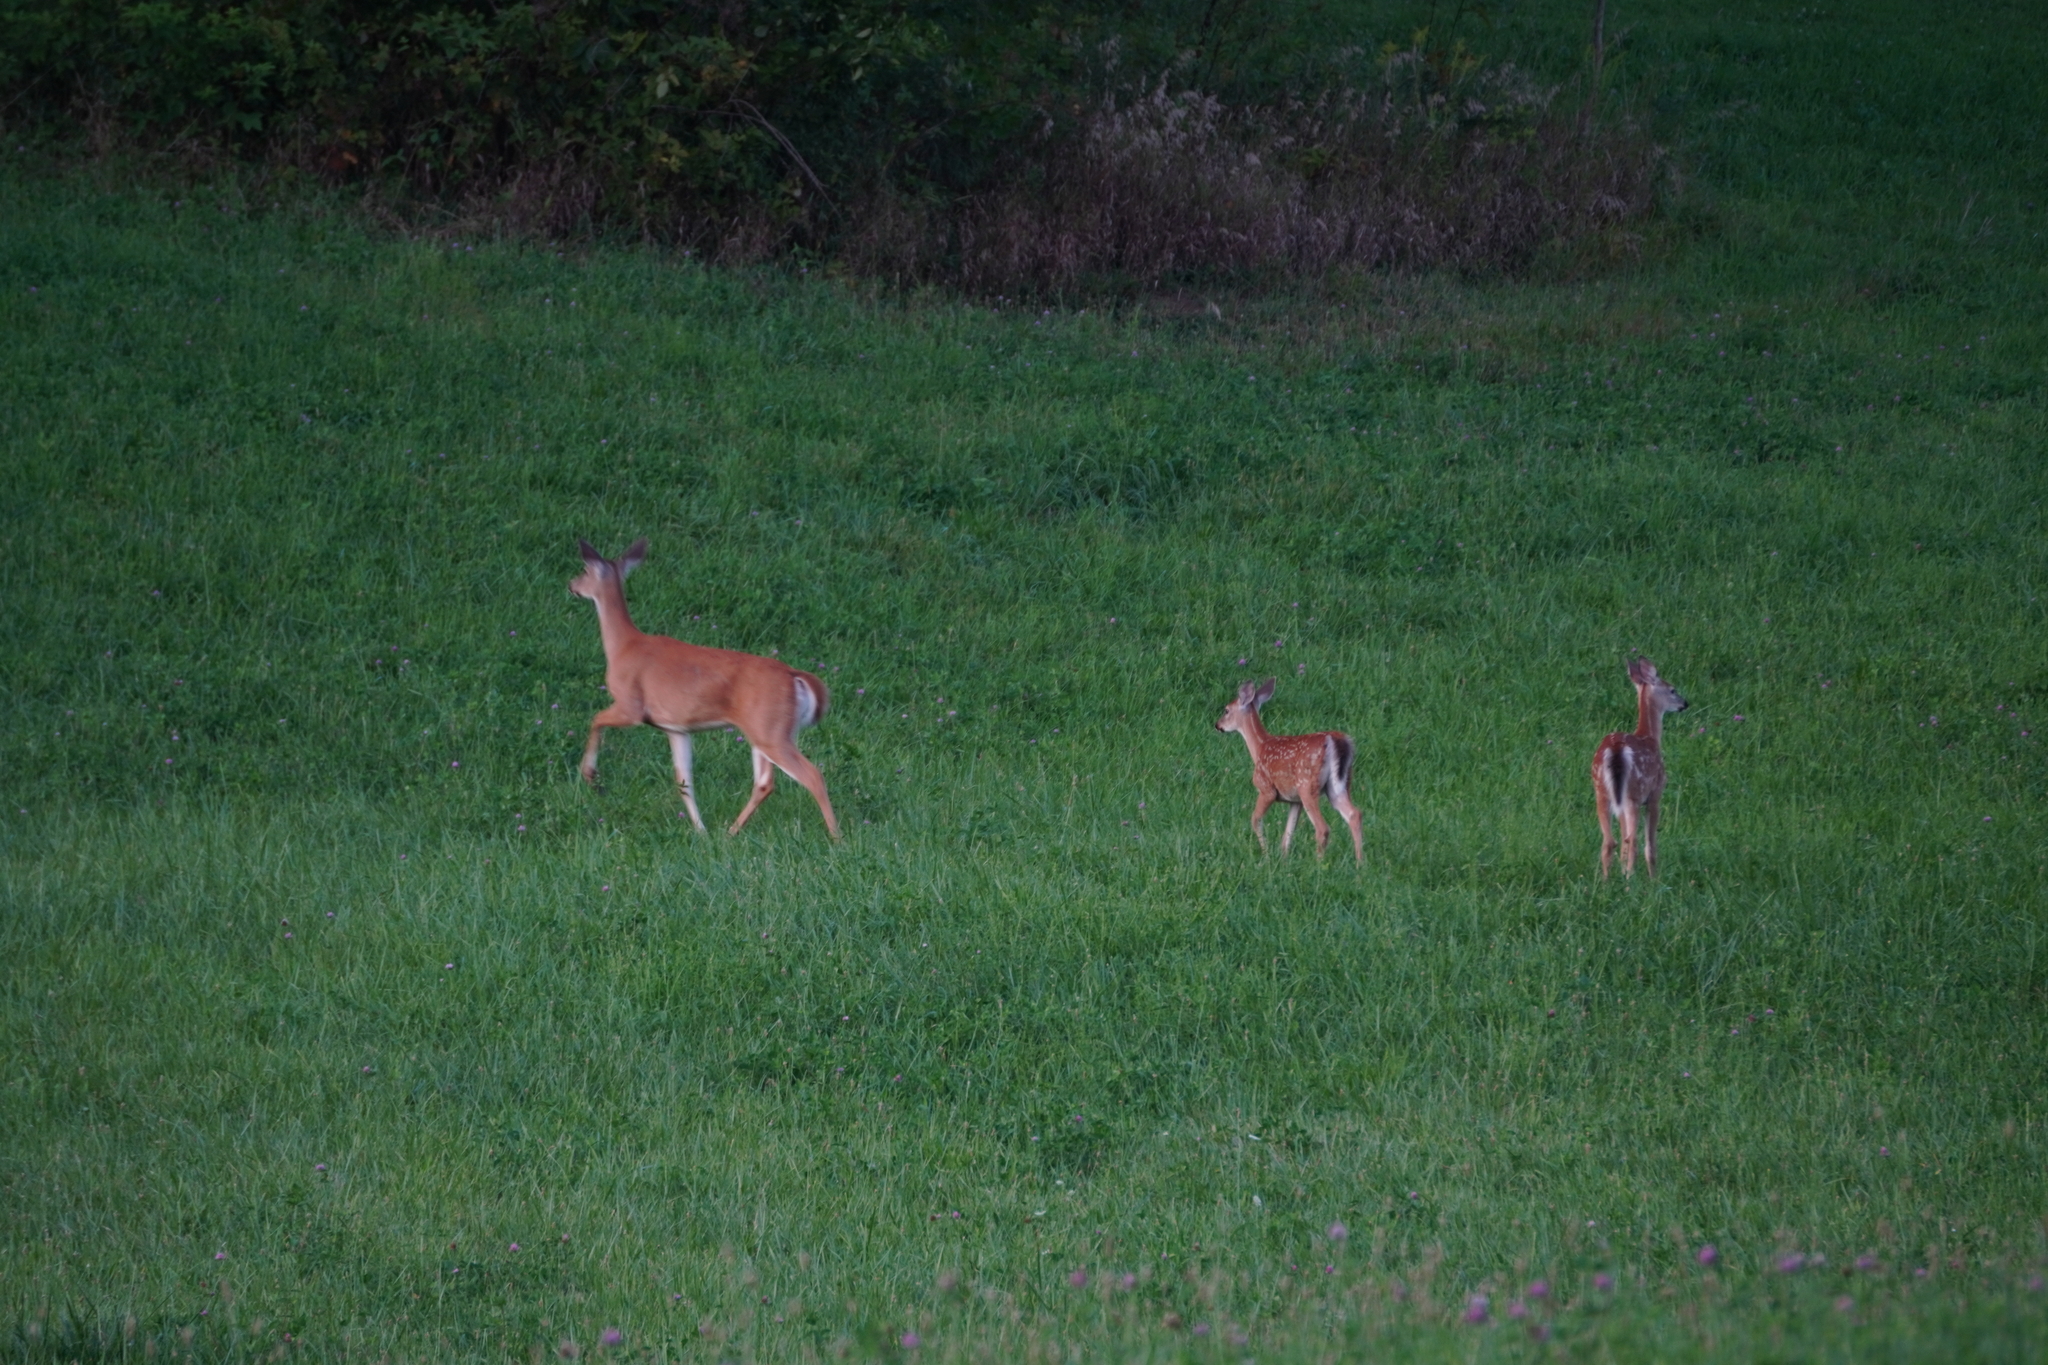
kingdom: Animalia
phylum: Chordata
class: Mammalia
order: Artiodactyla
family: Cervidae
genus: Odocoileus
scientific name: Odocoileus virginianus
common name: White-tailed deer
